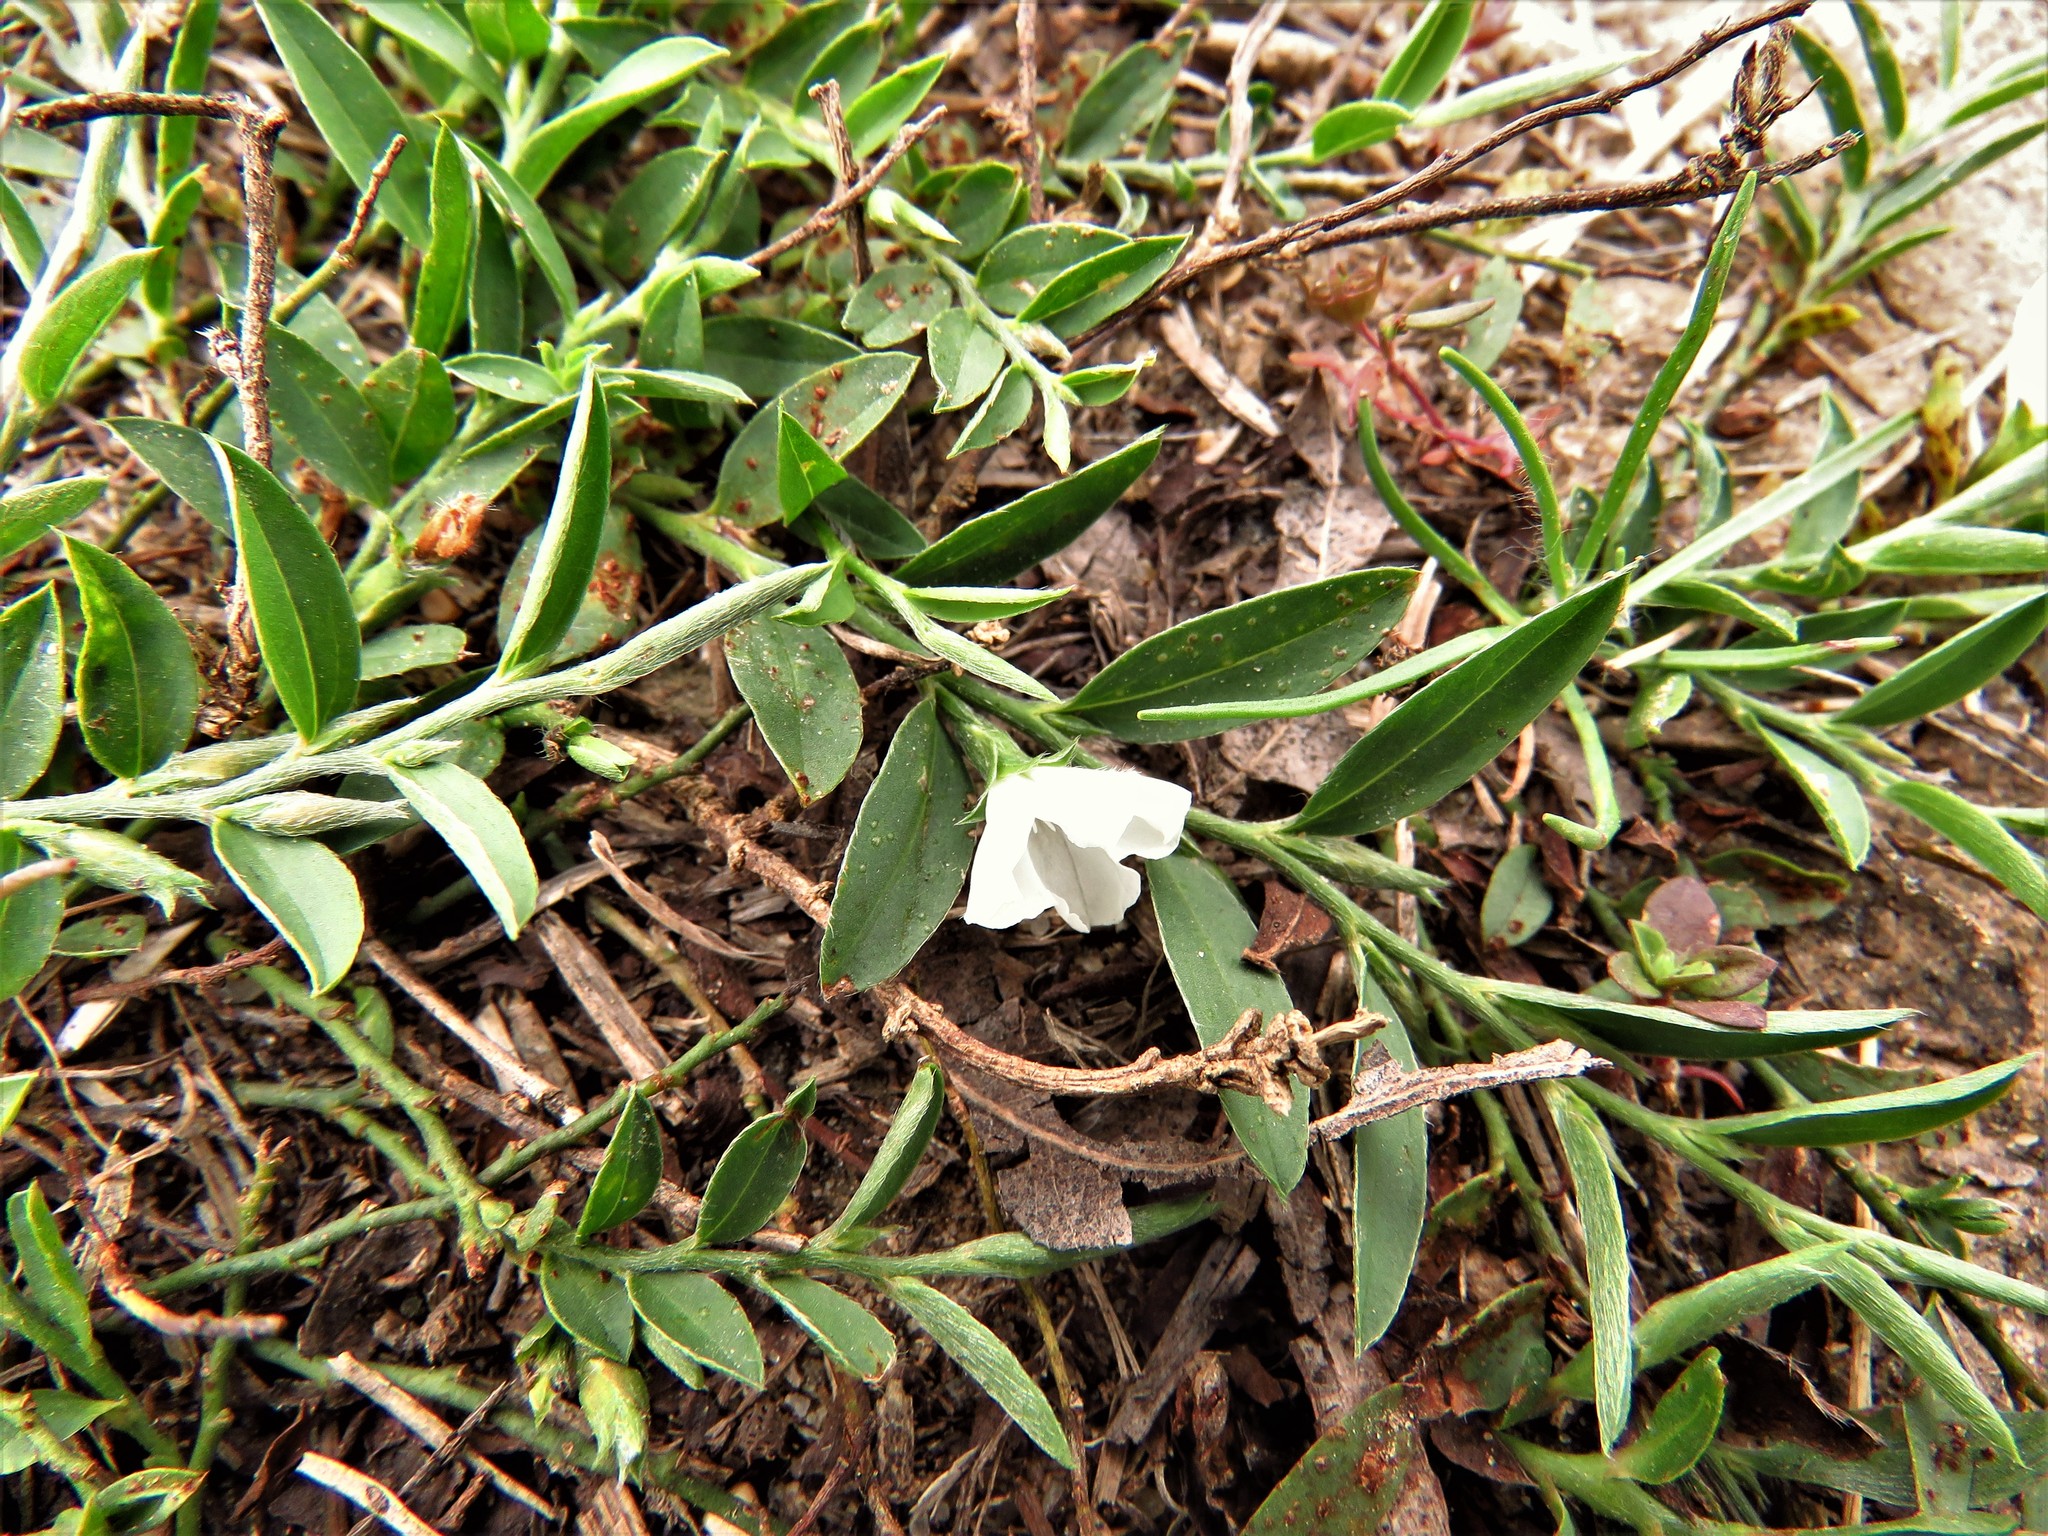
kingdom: Plantae
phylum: Tracheophyta
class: Magnoliopsida
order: Solanales
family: Convolvulaceae
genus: Evolvulus
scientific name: Evolvulus sericeus
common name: Blue dots
